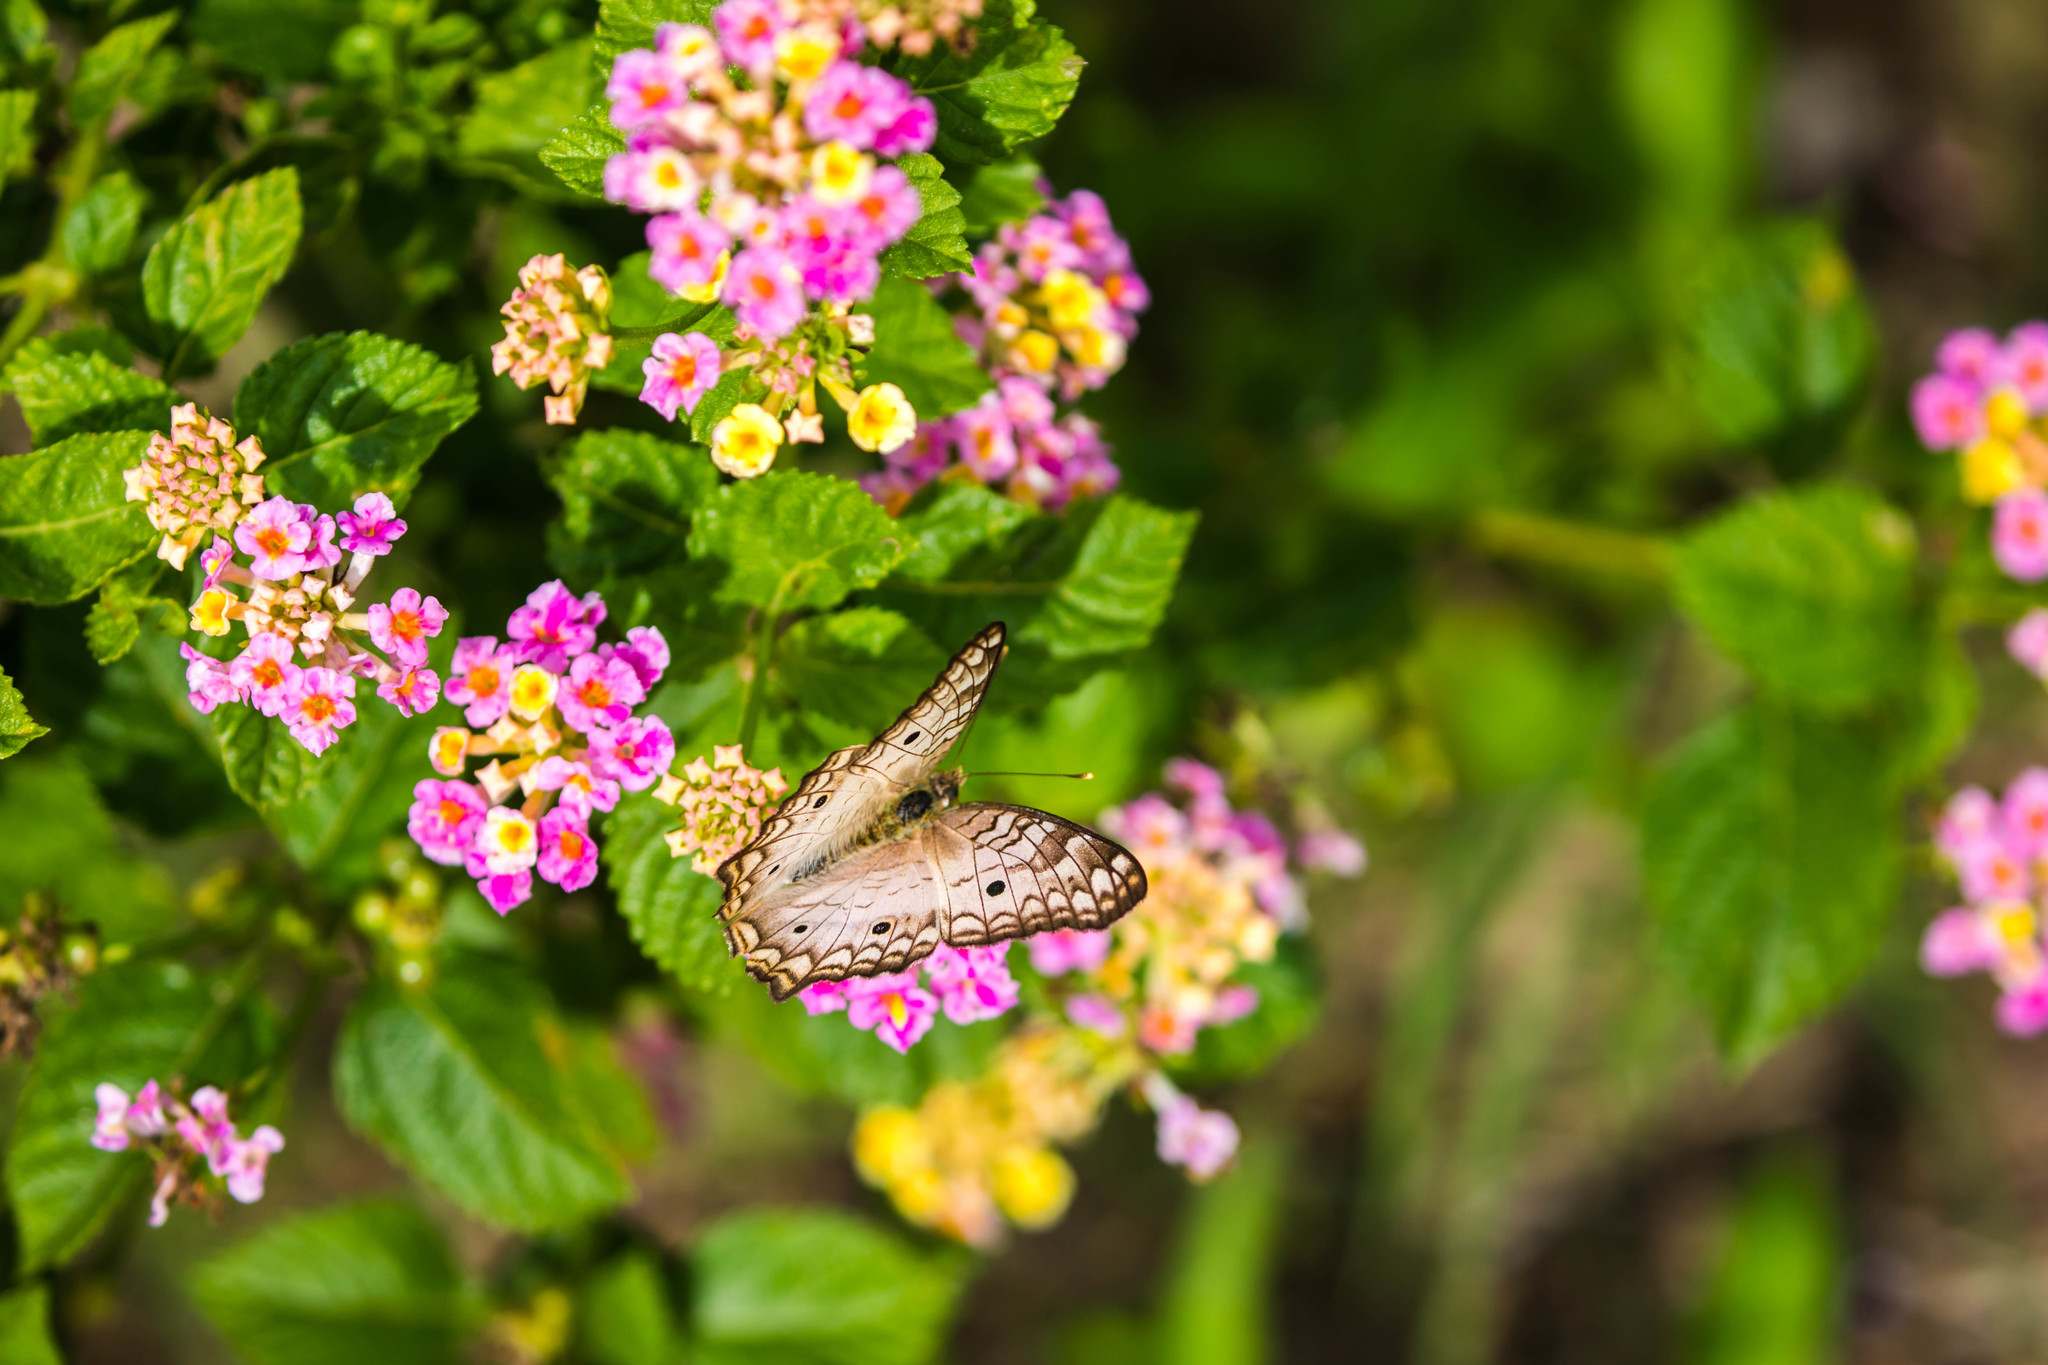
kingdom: Animalia
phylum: Arthropoda
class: Insecta
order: Lepidoptera
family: Nymphalidae
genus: Anartia
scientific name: Anartia jatrophae
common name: White peacock
